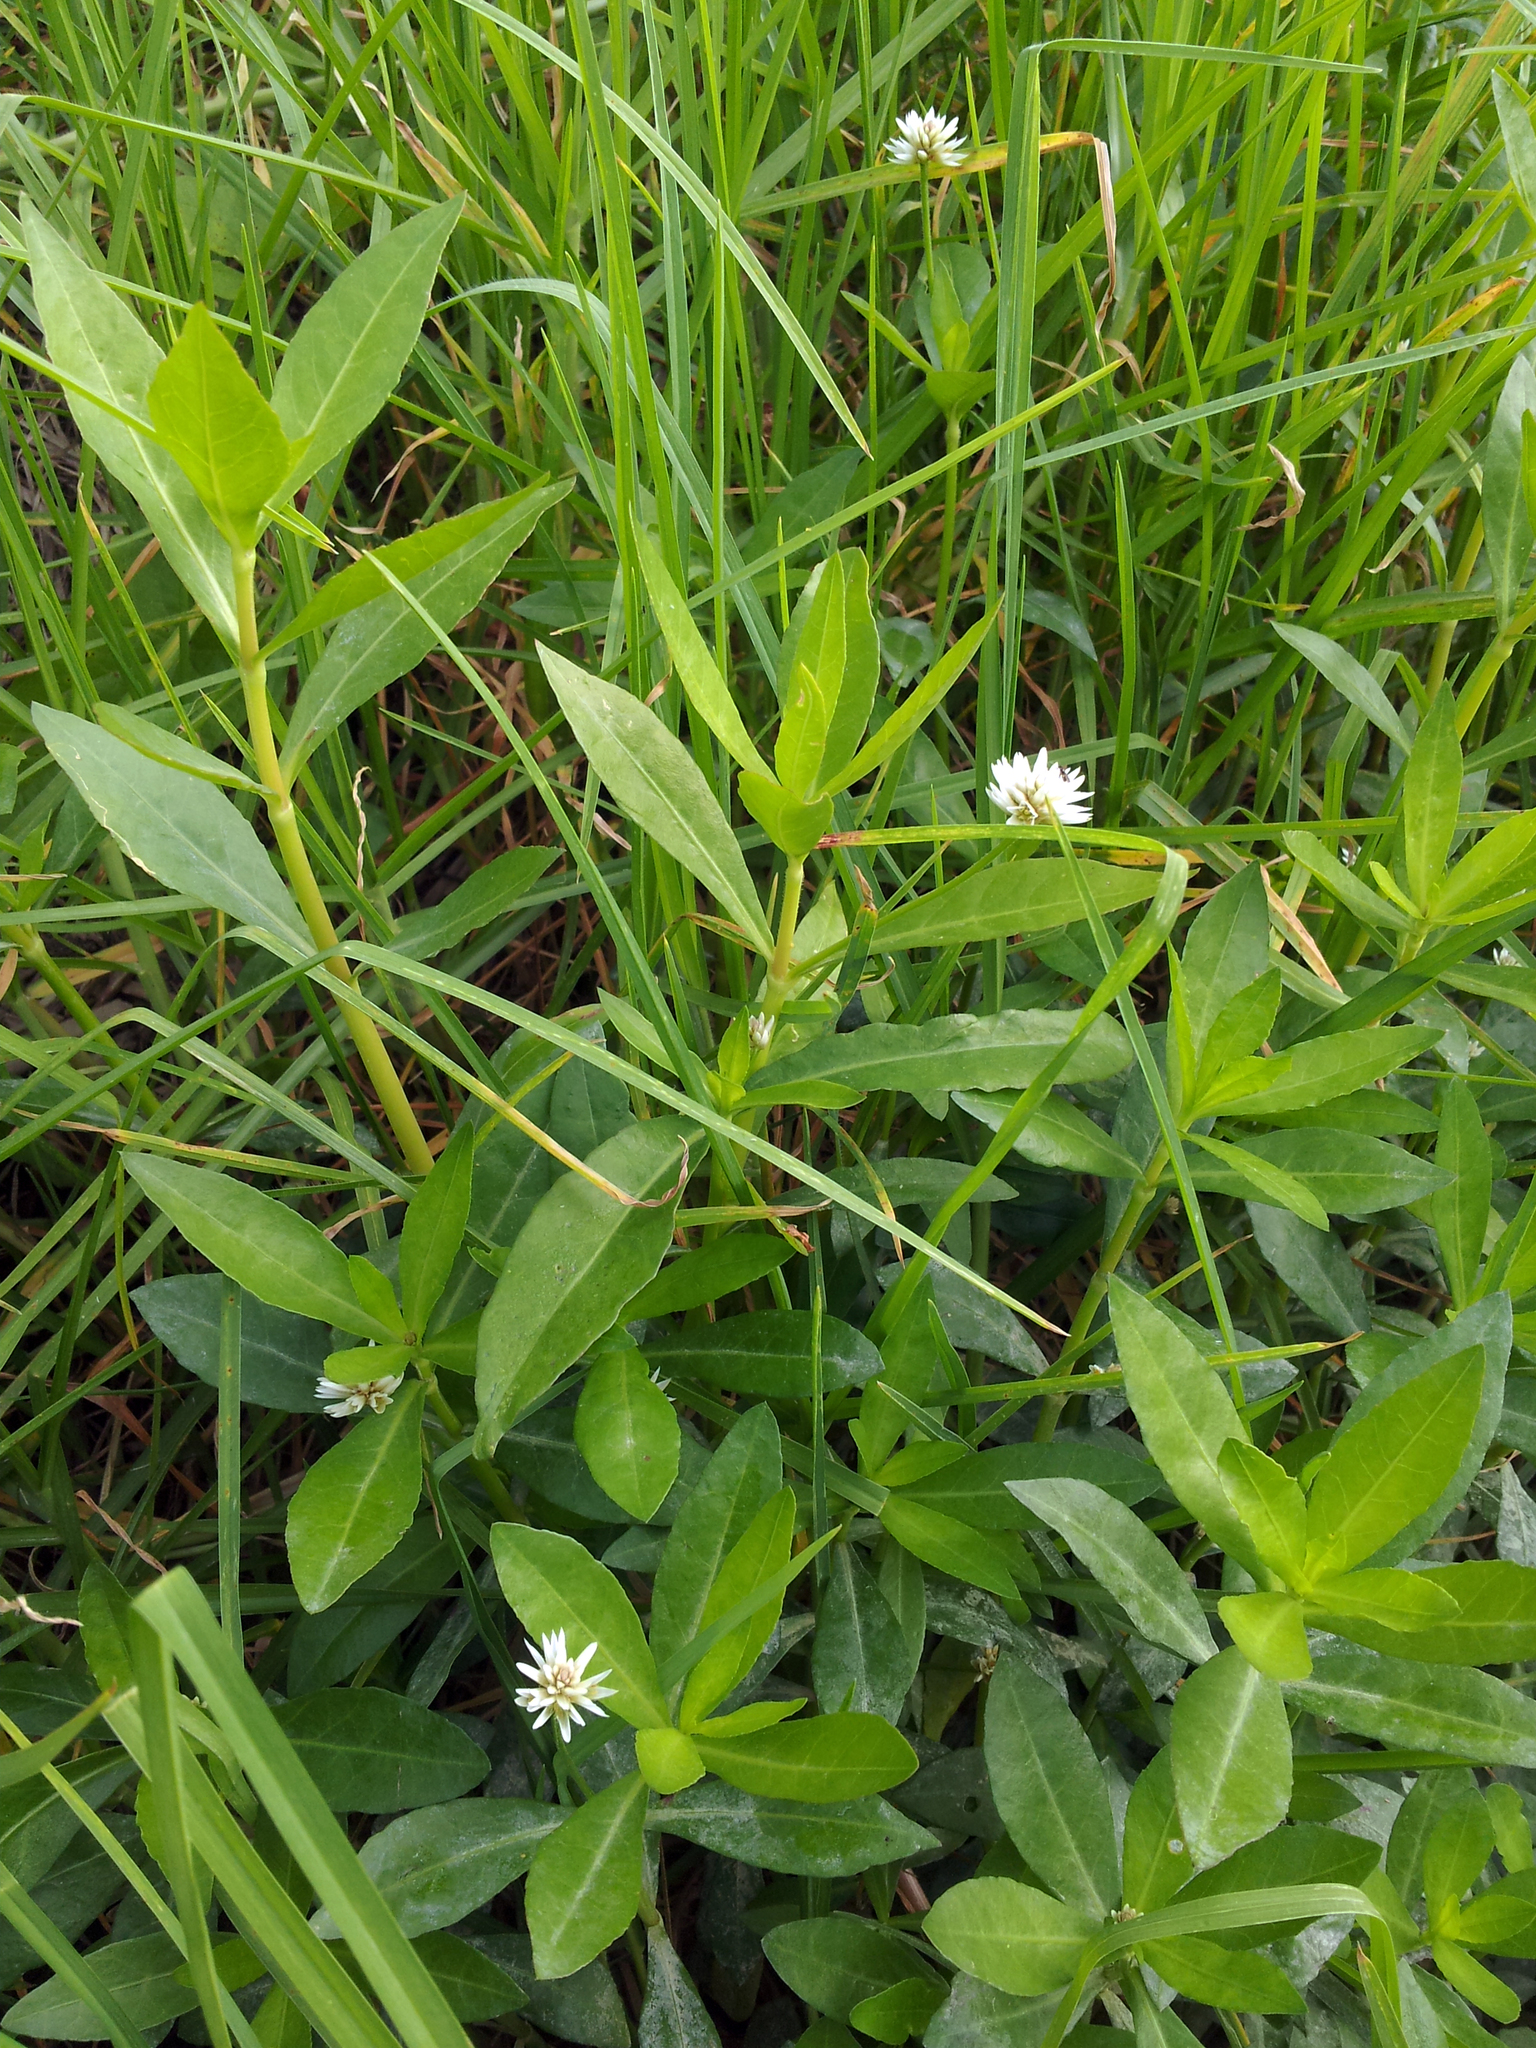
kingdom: Plantae
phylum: Tracheophyta
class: Magnoliopsida
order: Caryophyllales
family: Amaranthaceae
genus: Alternanthera
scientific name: Alternanthera philoxeroides
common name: Alligatorweed
